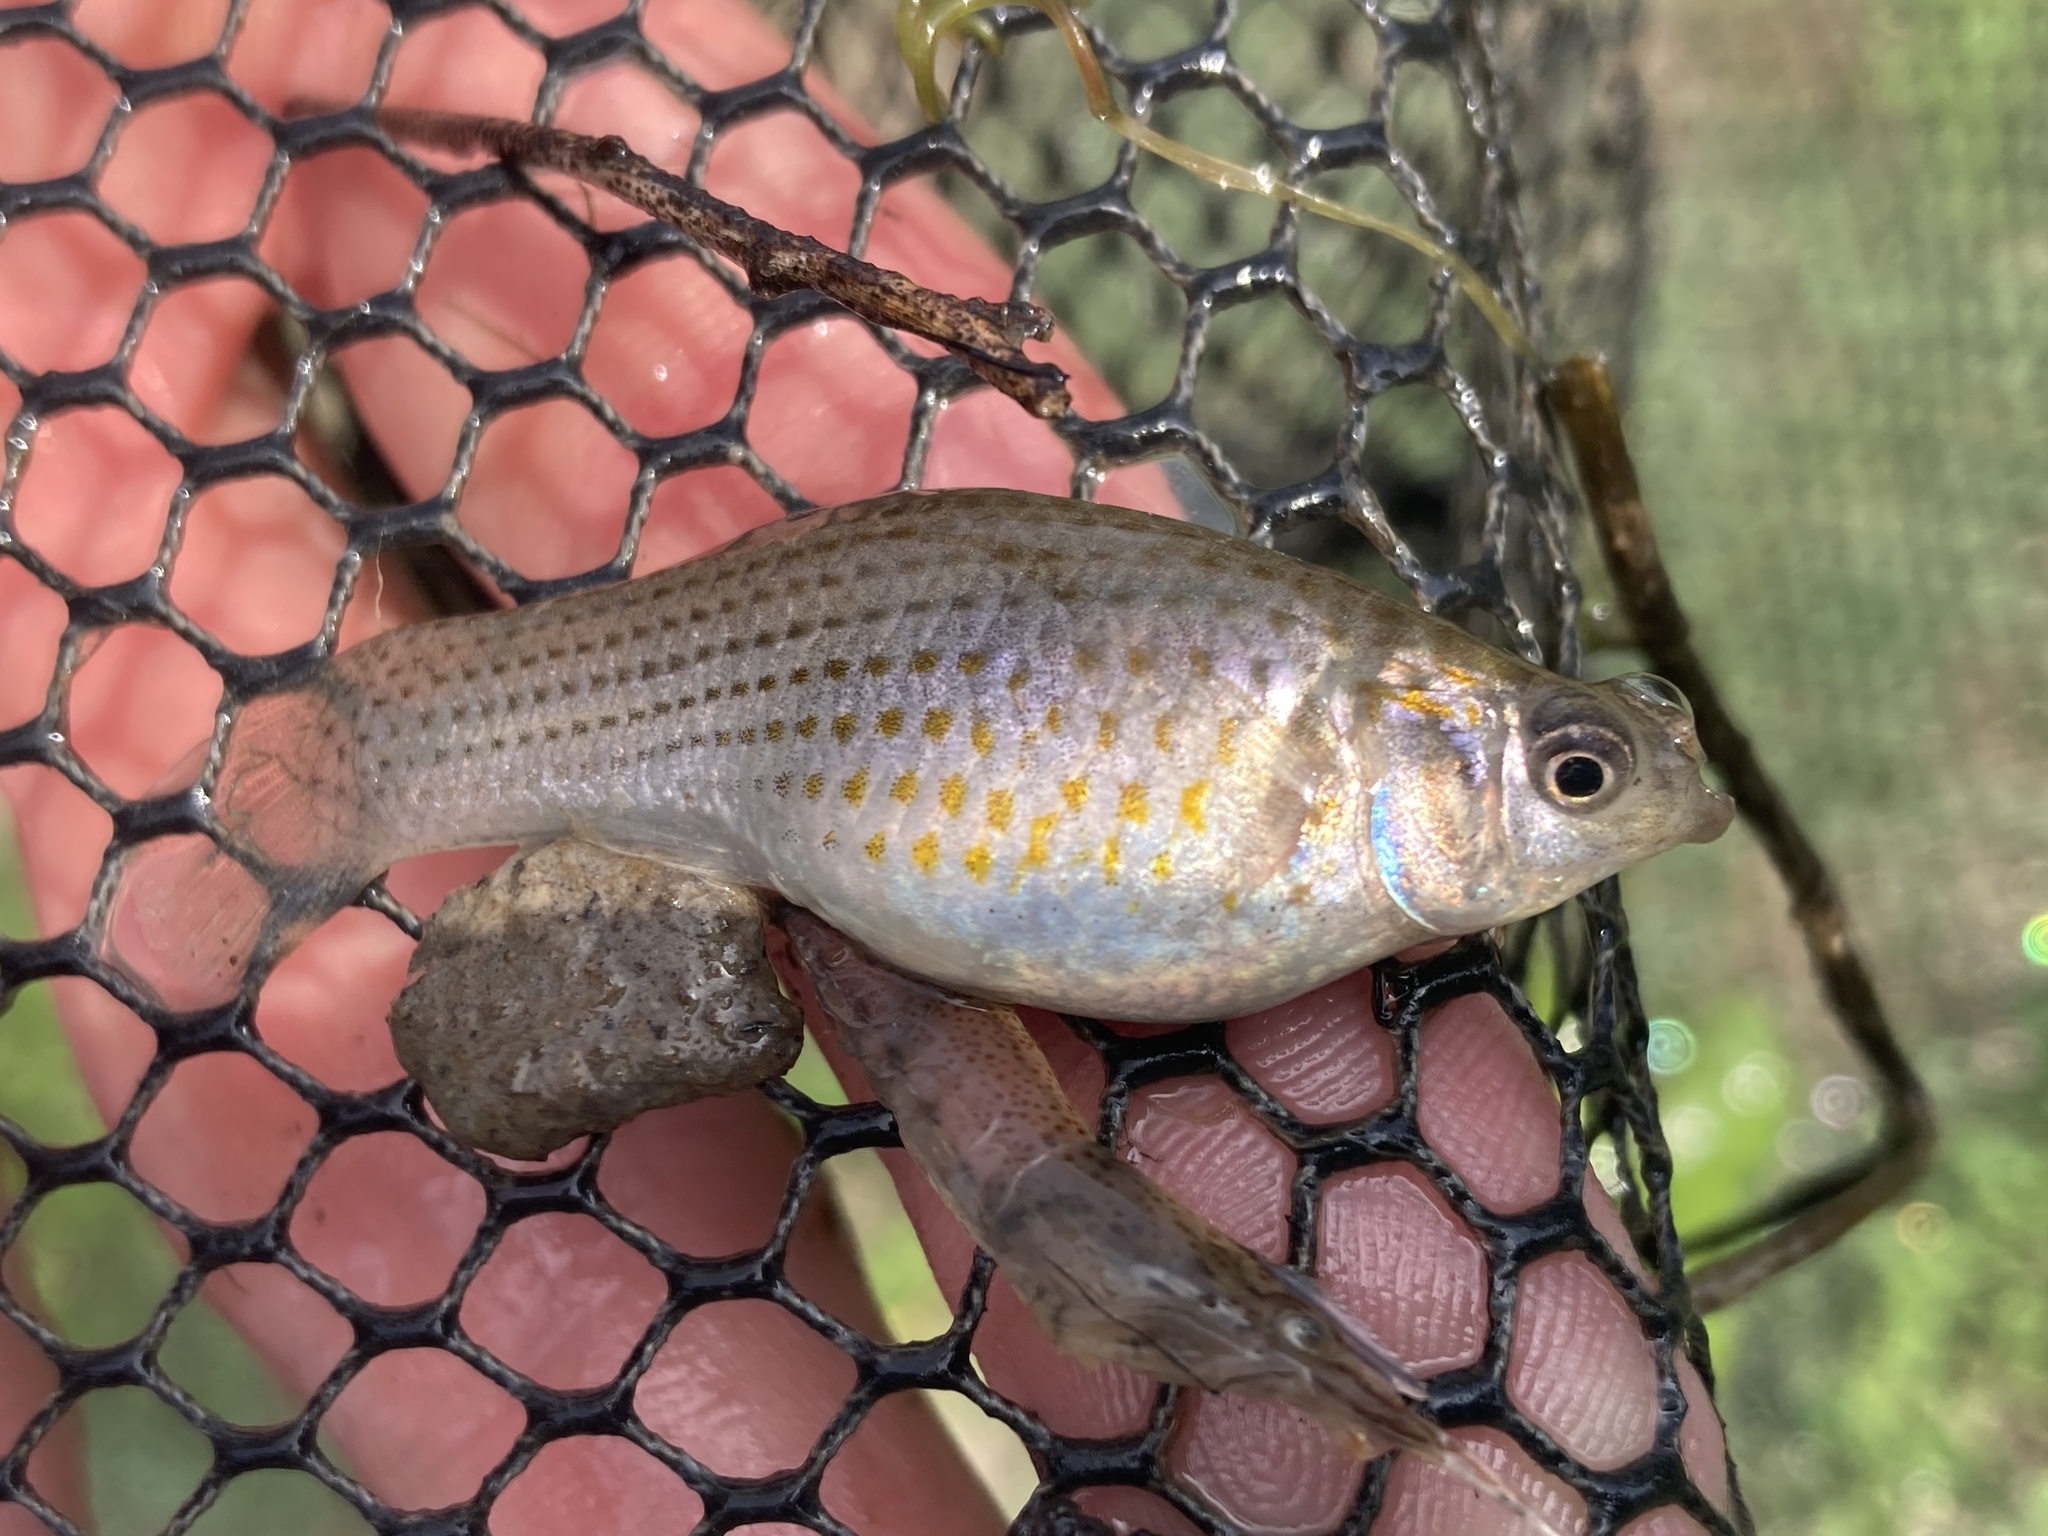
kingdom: Animalia
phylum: Chordata
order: Cyprinodontiformes
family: Poeciliidae
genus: Poecilia
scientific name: Poecilia latipinna
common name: Sailfin molly
